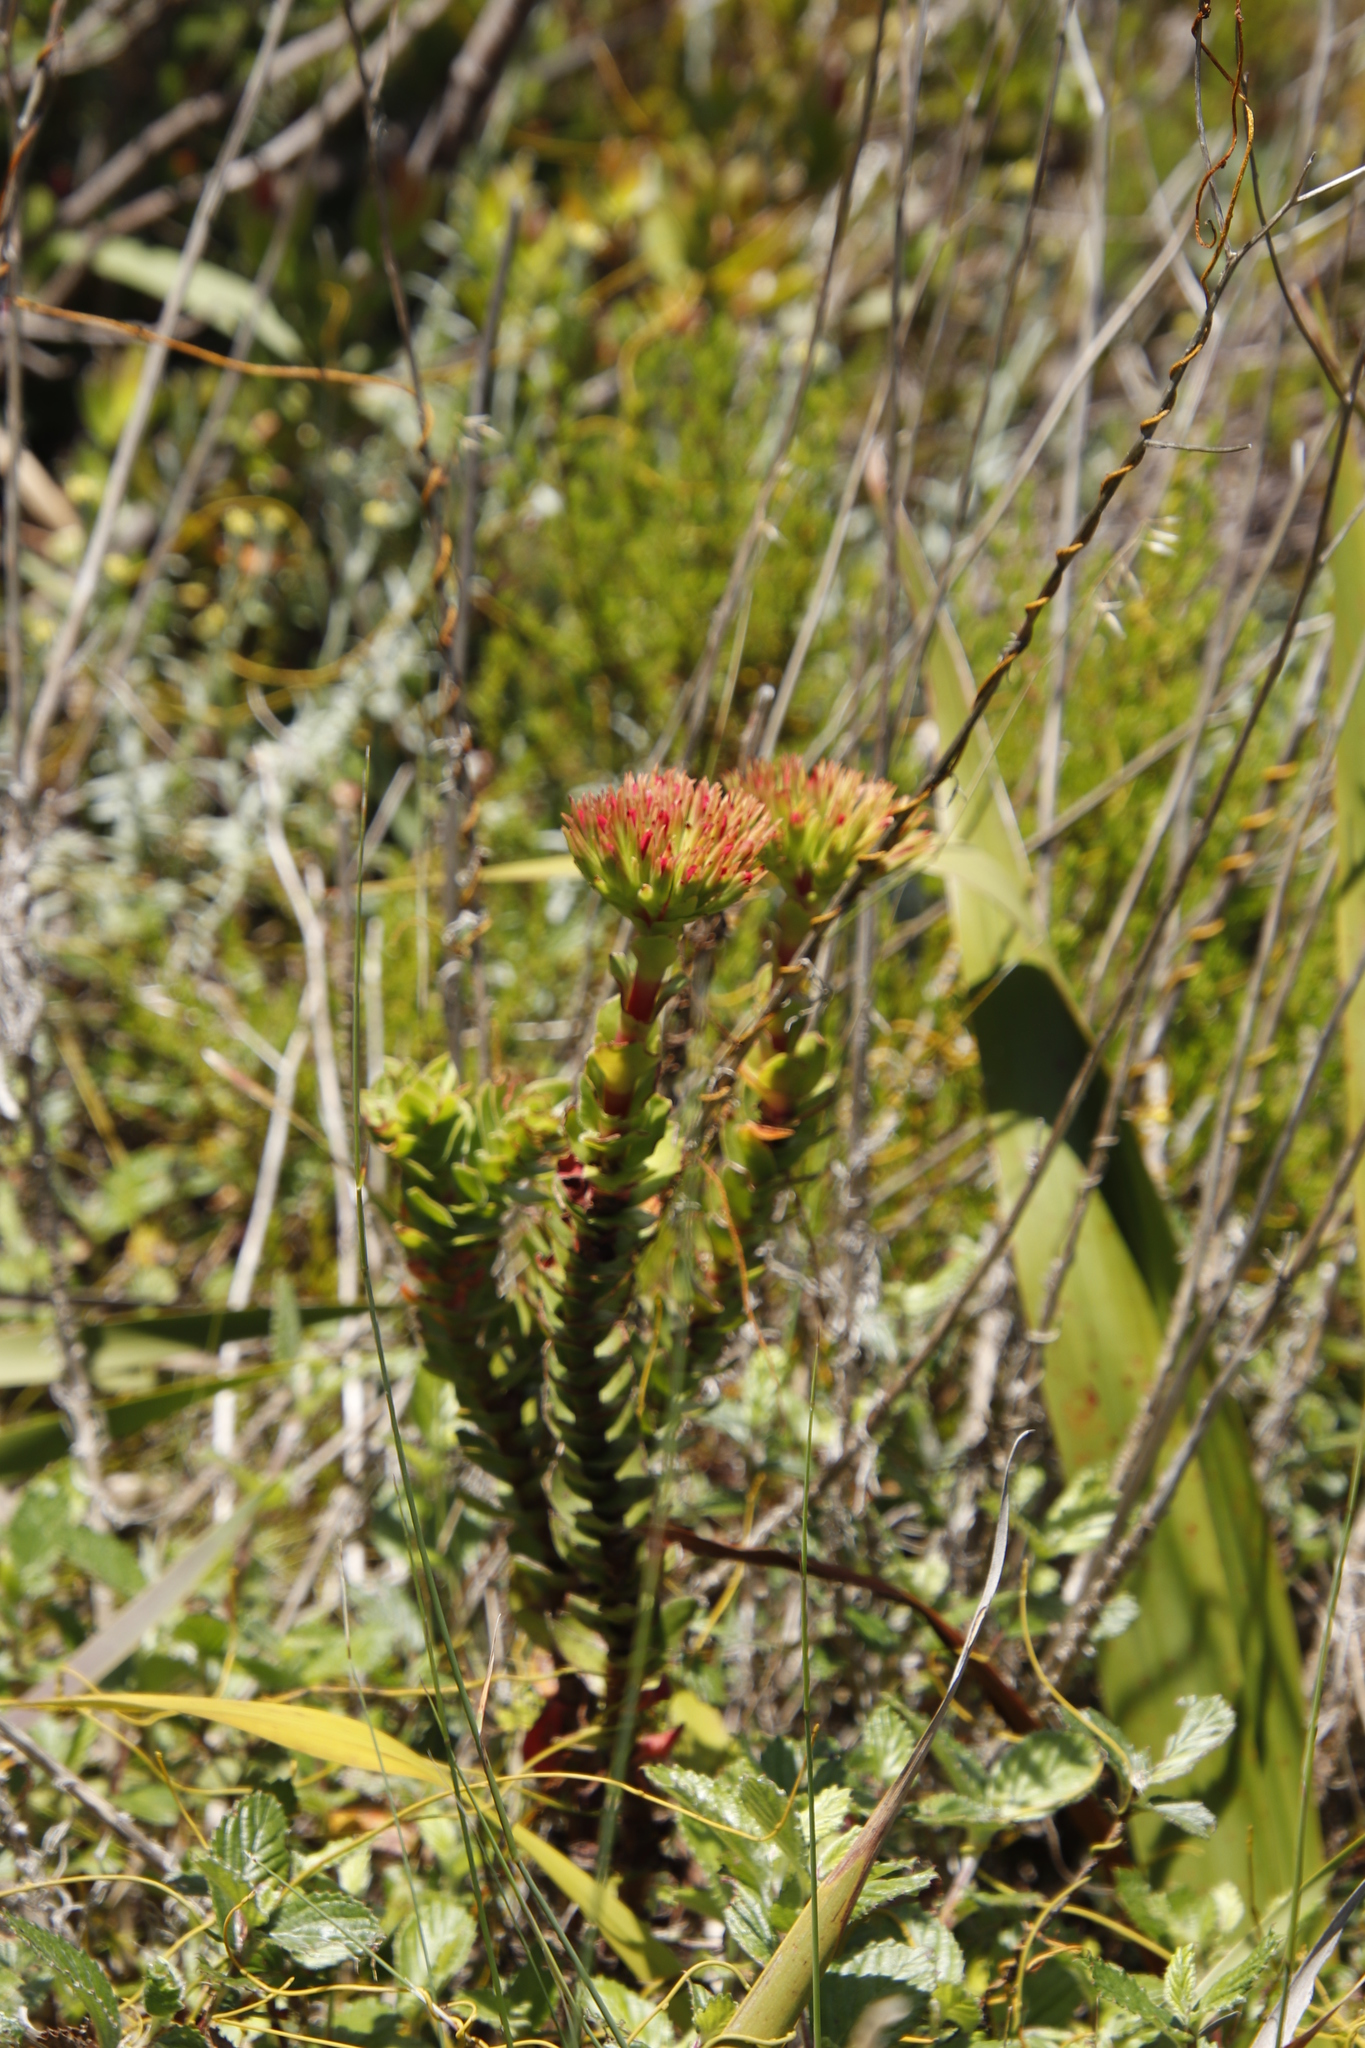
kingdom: Plantae
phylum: Tracheophyta
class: Magnoliopsida
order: Saxifragales
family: Crassulaceae
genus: Crassula
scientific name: Crassula coccinea
